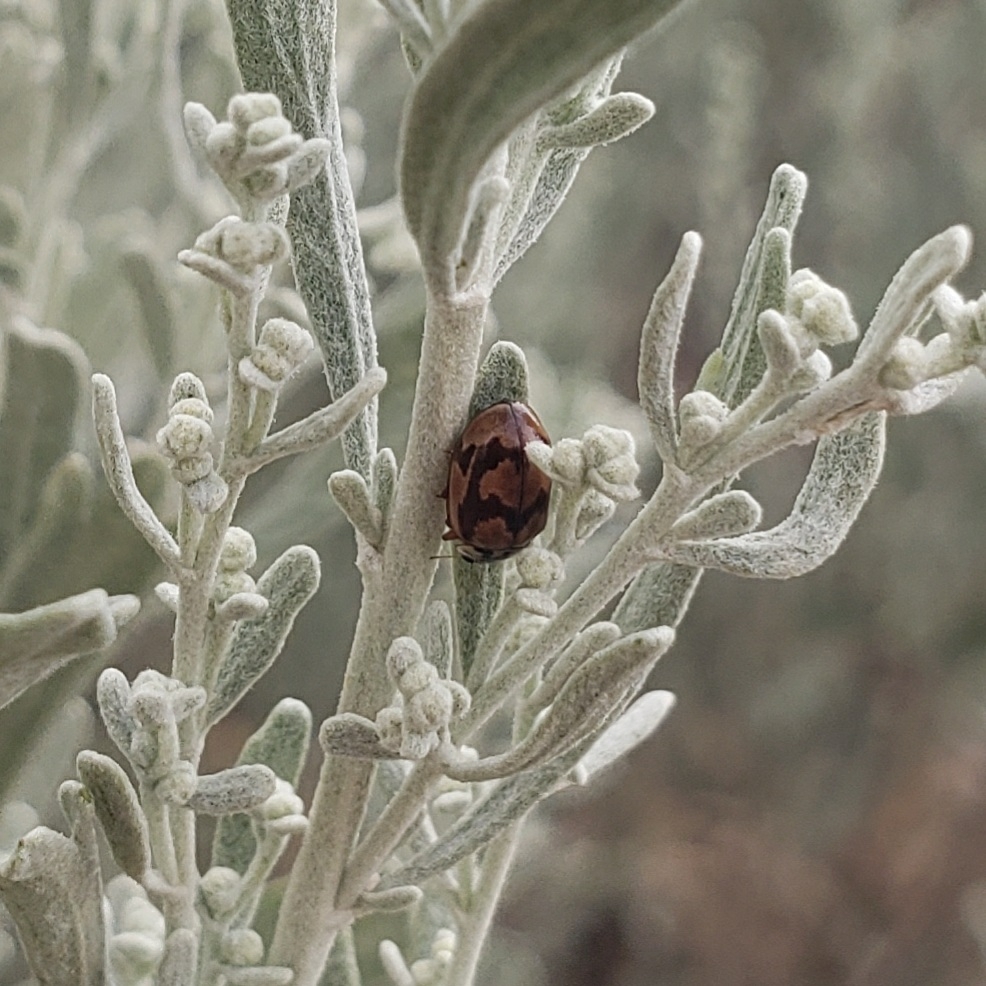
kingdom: Animalia
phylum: Arthropoda
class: Insecta
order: Coleoptera
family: Coccinellidae
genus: Mulsantina
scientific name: Mulsantina picta
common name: Painted ladybird
